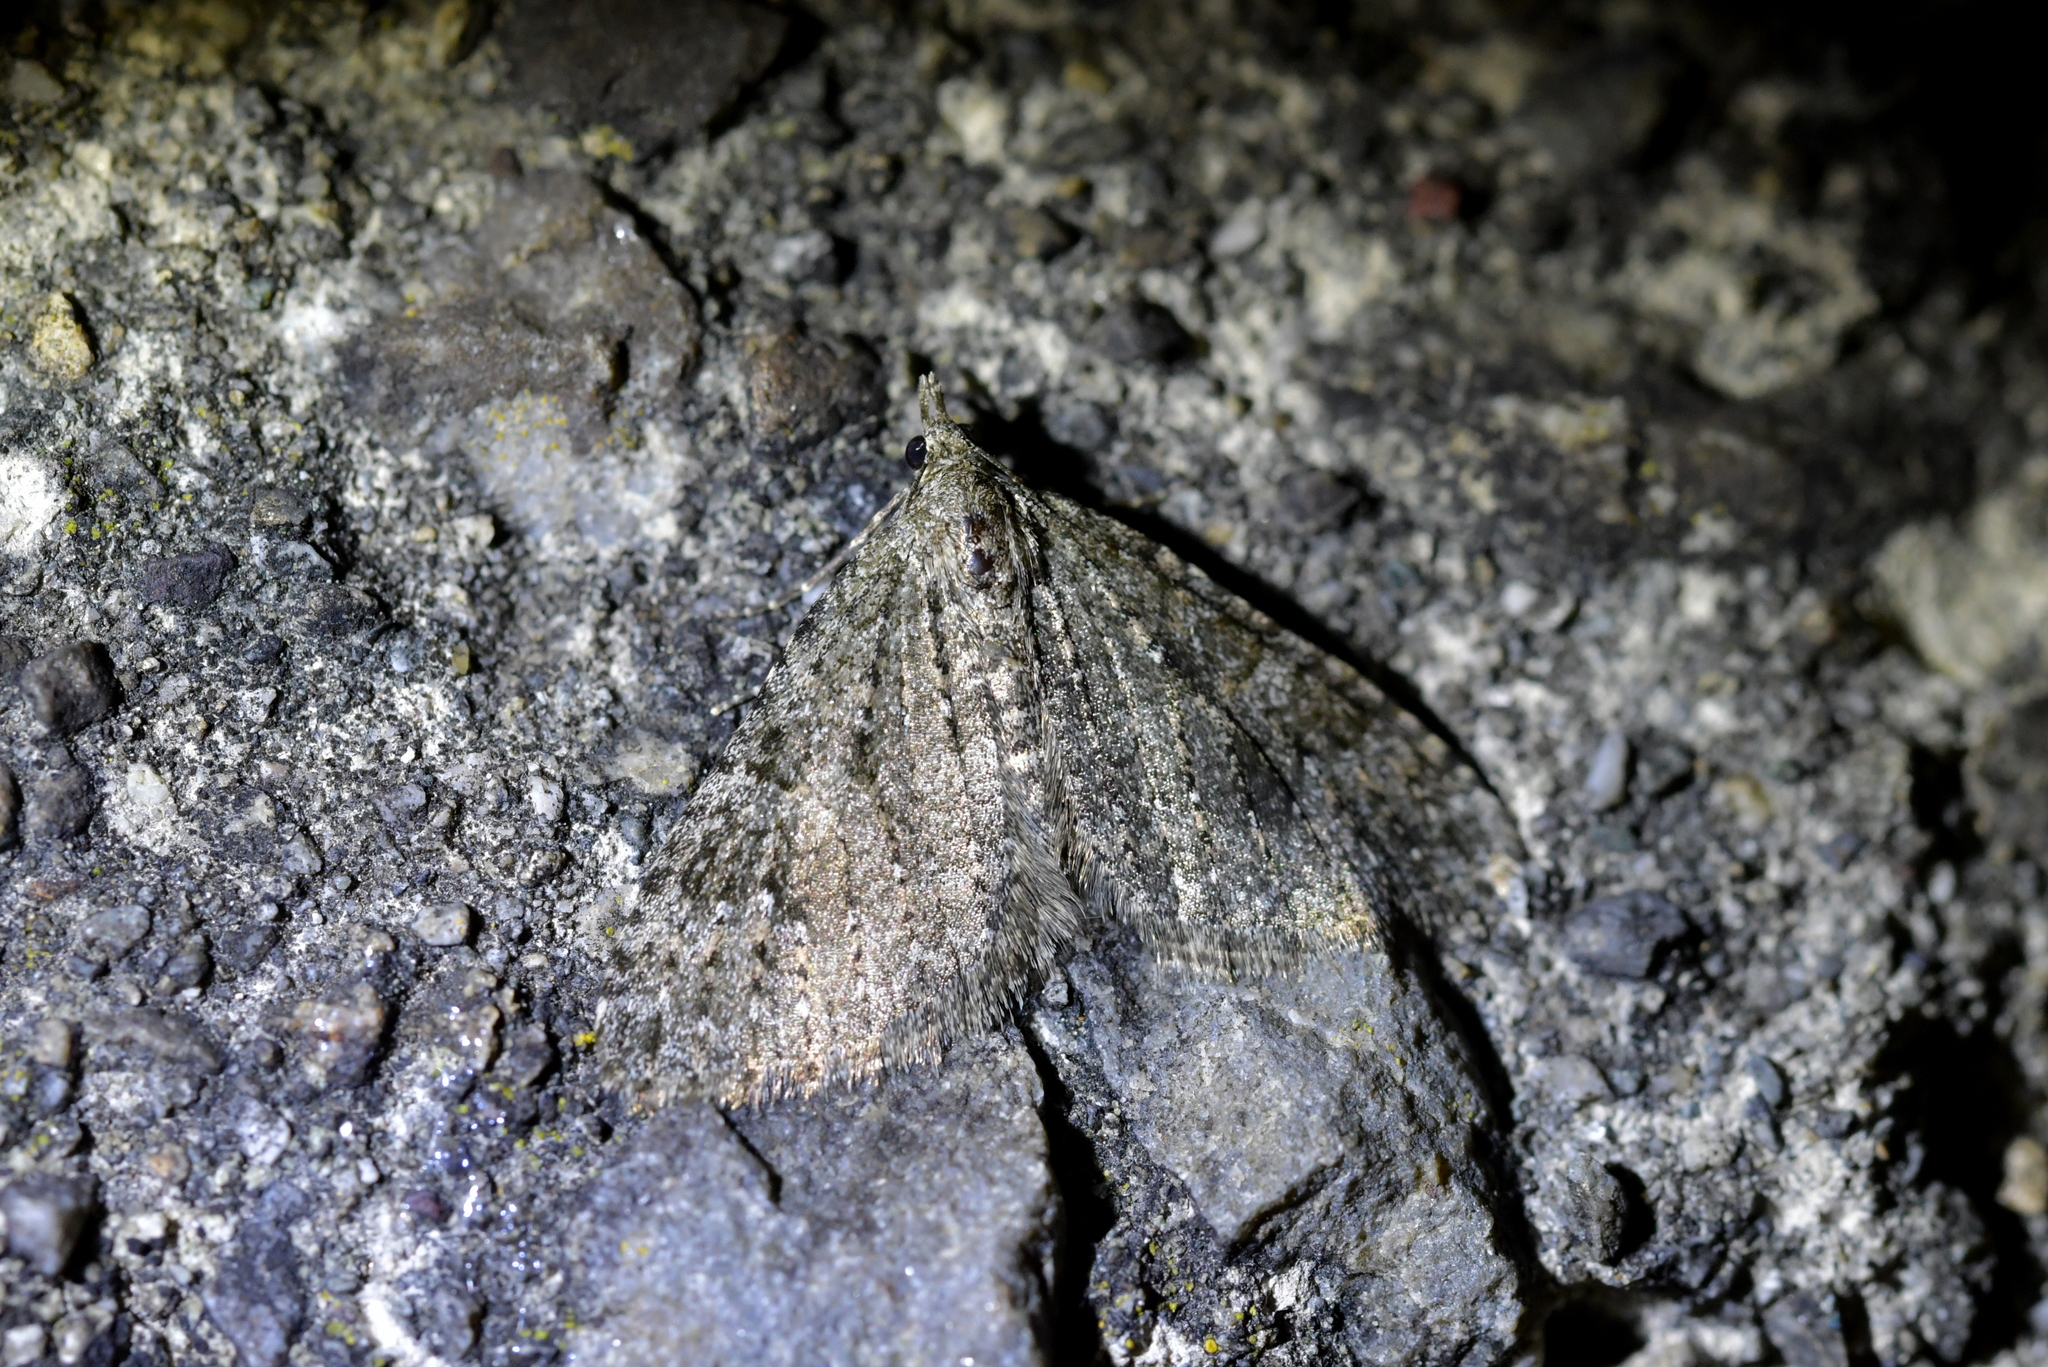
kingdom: Animalia
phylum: Arthropoda
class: Insecta
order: Lepidoptera
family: Geometridae
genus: Helastia
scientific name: Helastia semisignata
